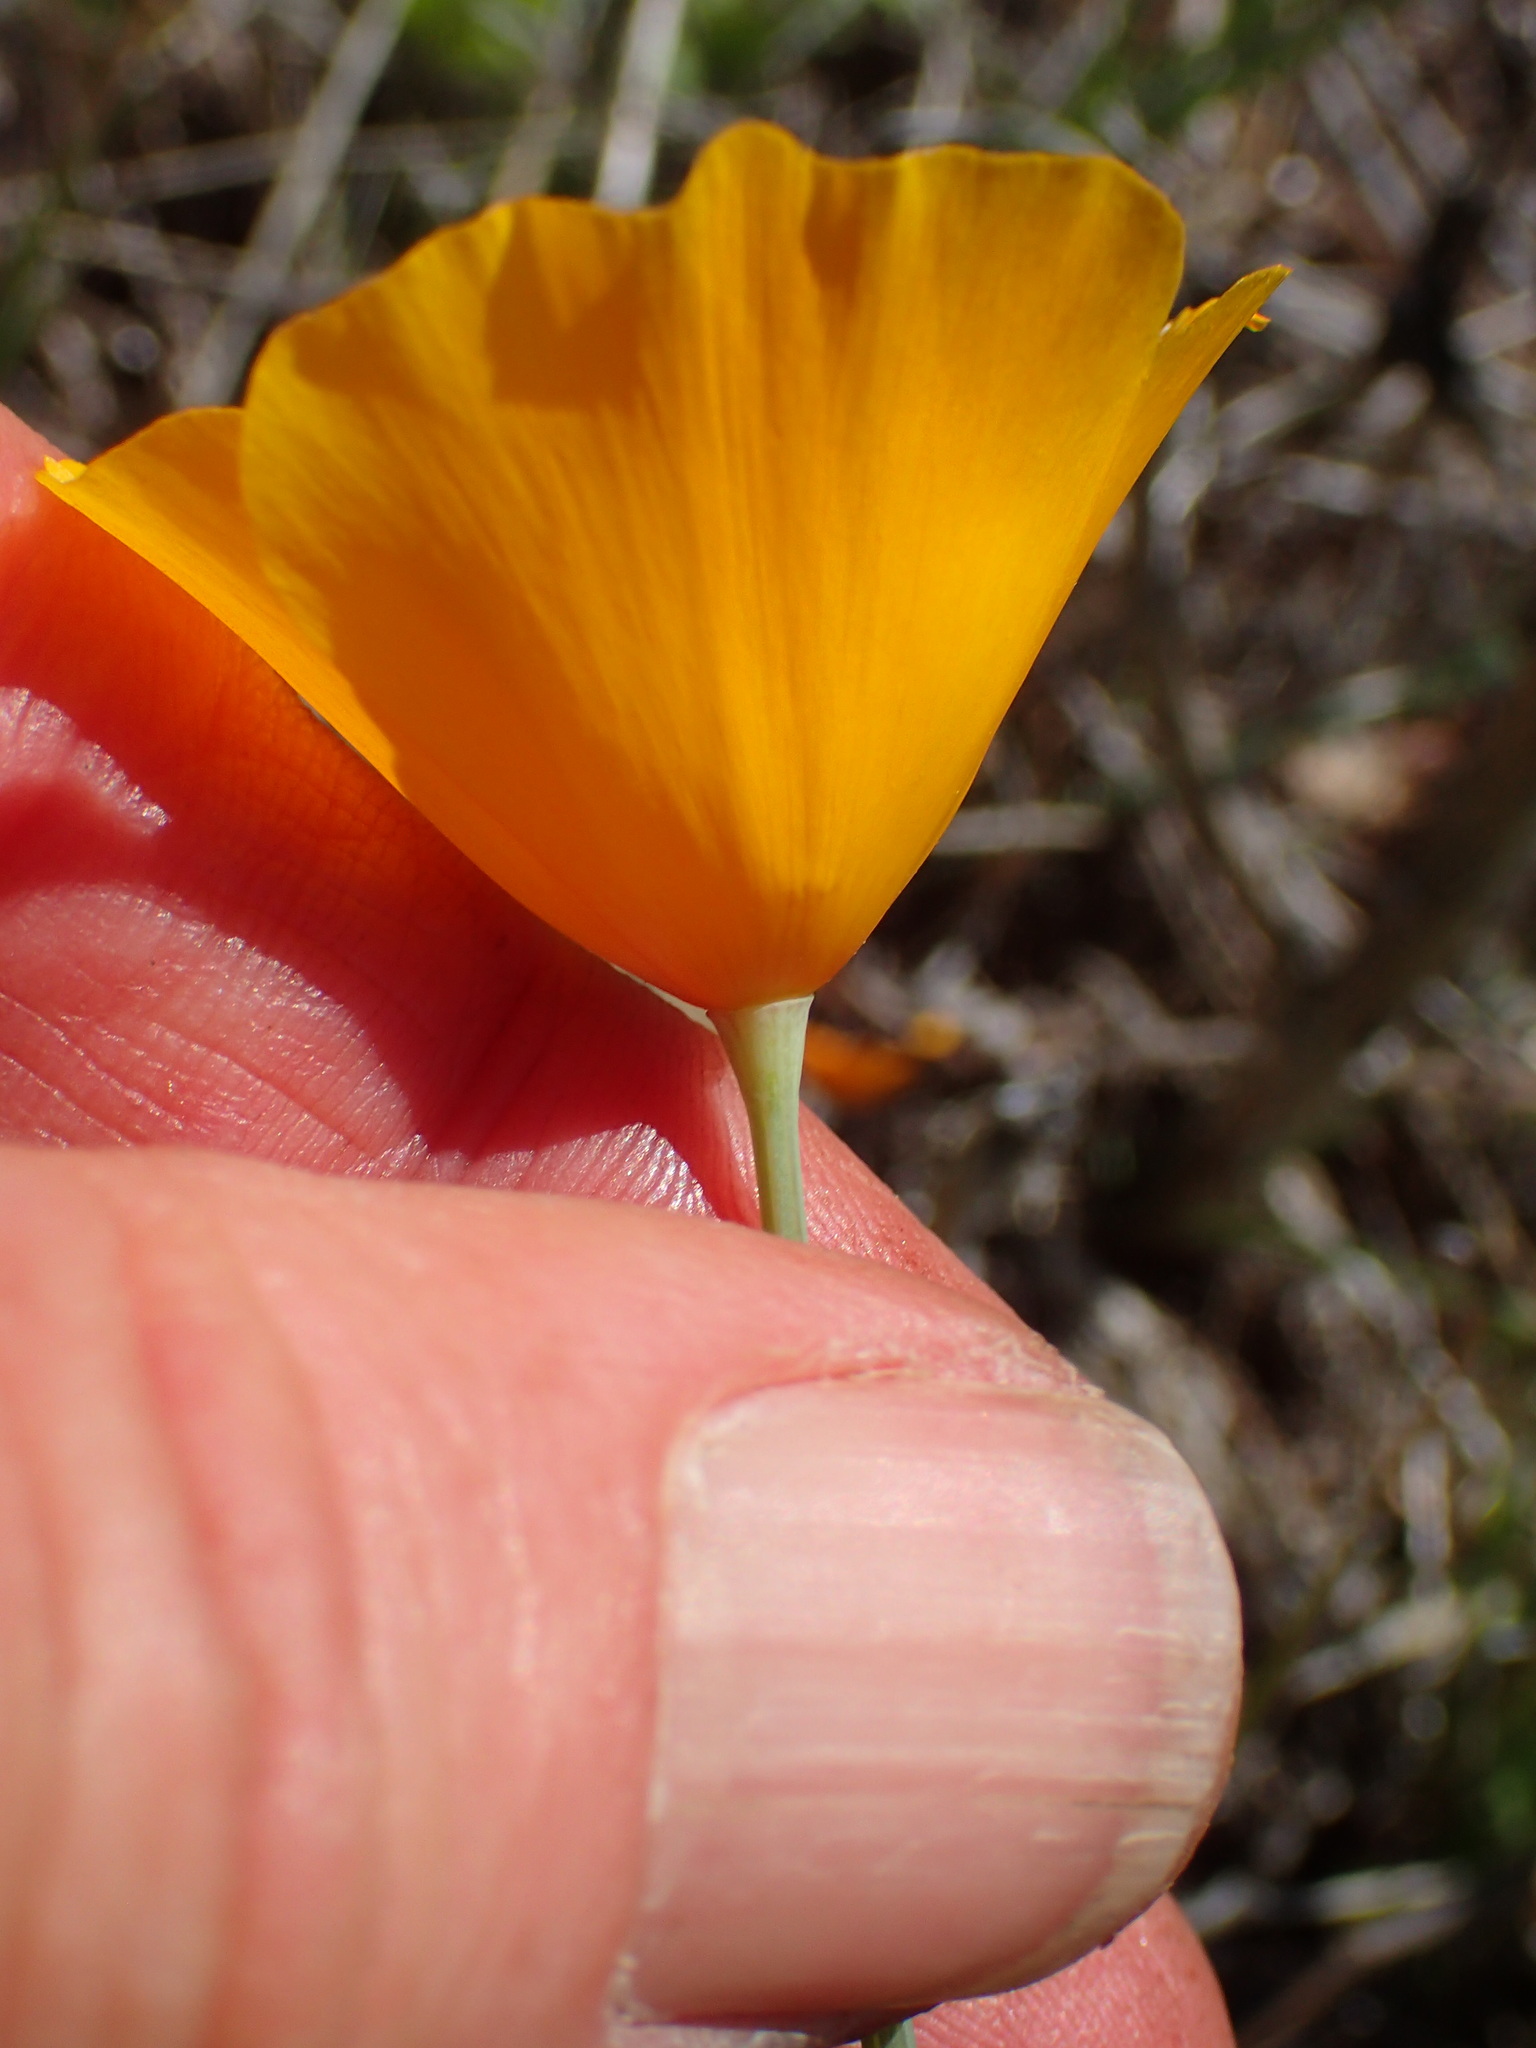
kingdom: Plantae
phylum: Tracheophyta
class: Magnoliopsida
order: Ranunculales
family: Papaveraceae
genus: Eschscholzia
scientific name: Eschscholzia caespitosa
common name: Tufted california-poppy
